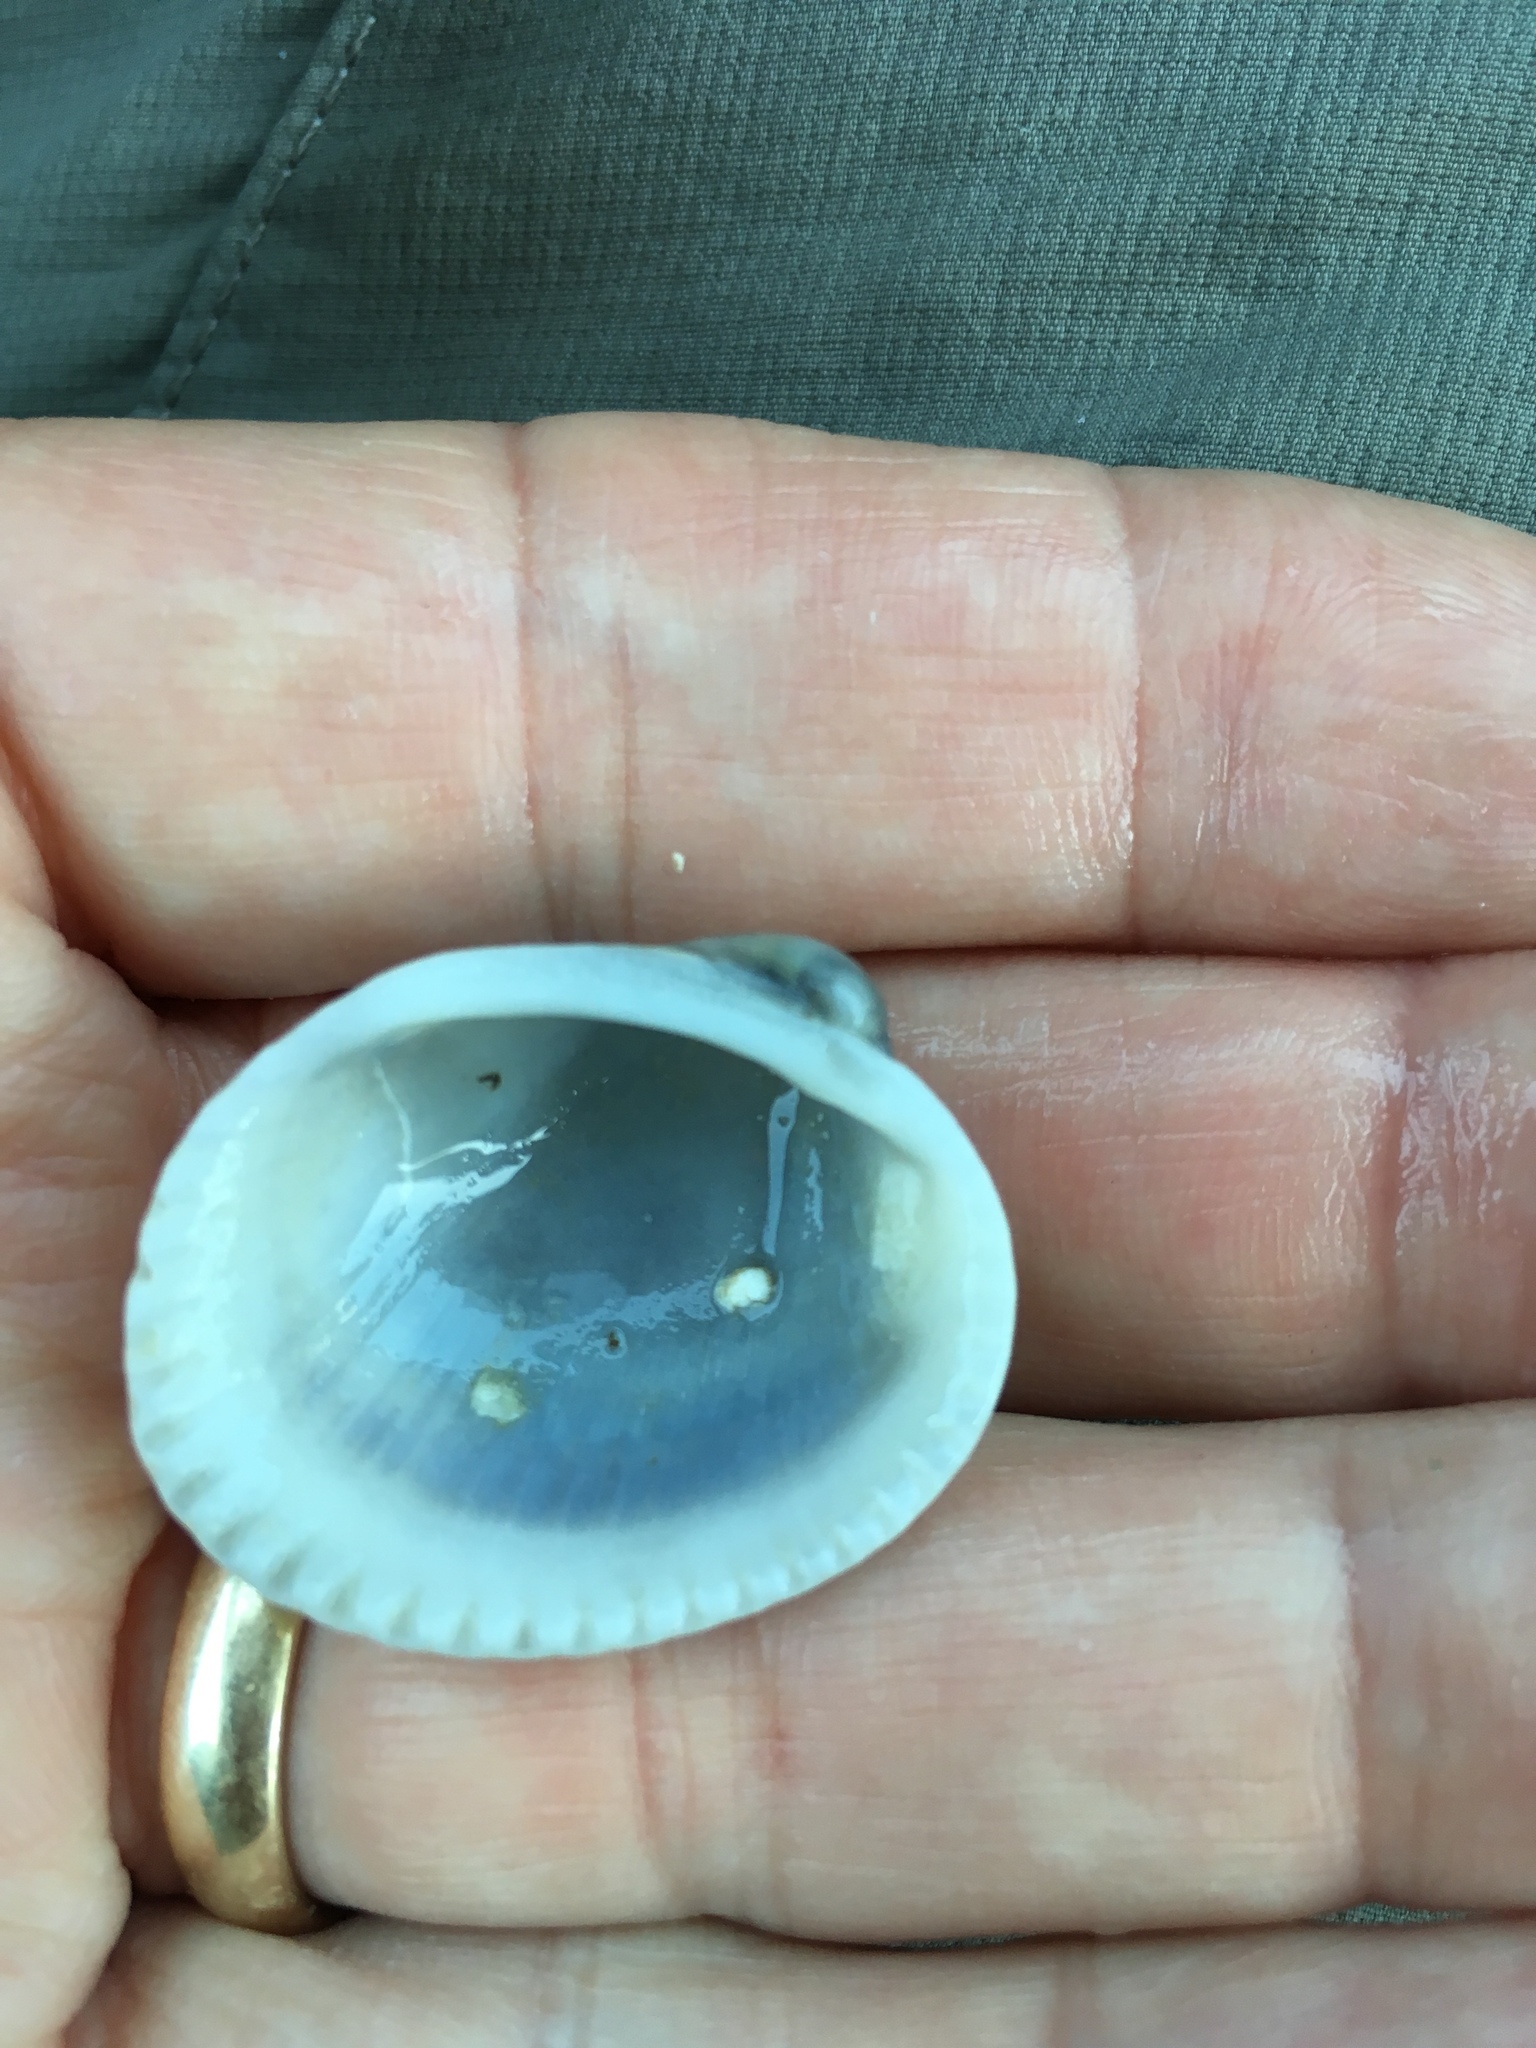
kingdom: Animalia
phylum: Mollusca
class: Bivalvia
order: Arcida
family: Arcidae
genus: Lunarca
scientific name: Lunarca ovalis
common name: Blood ark
